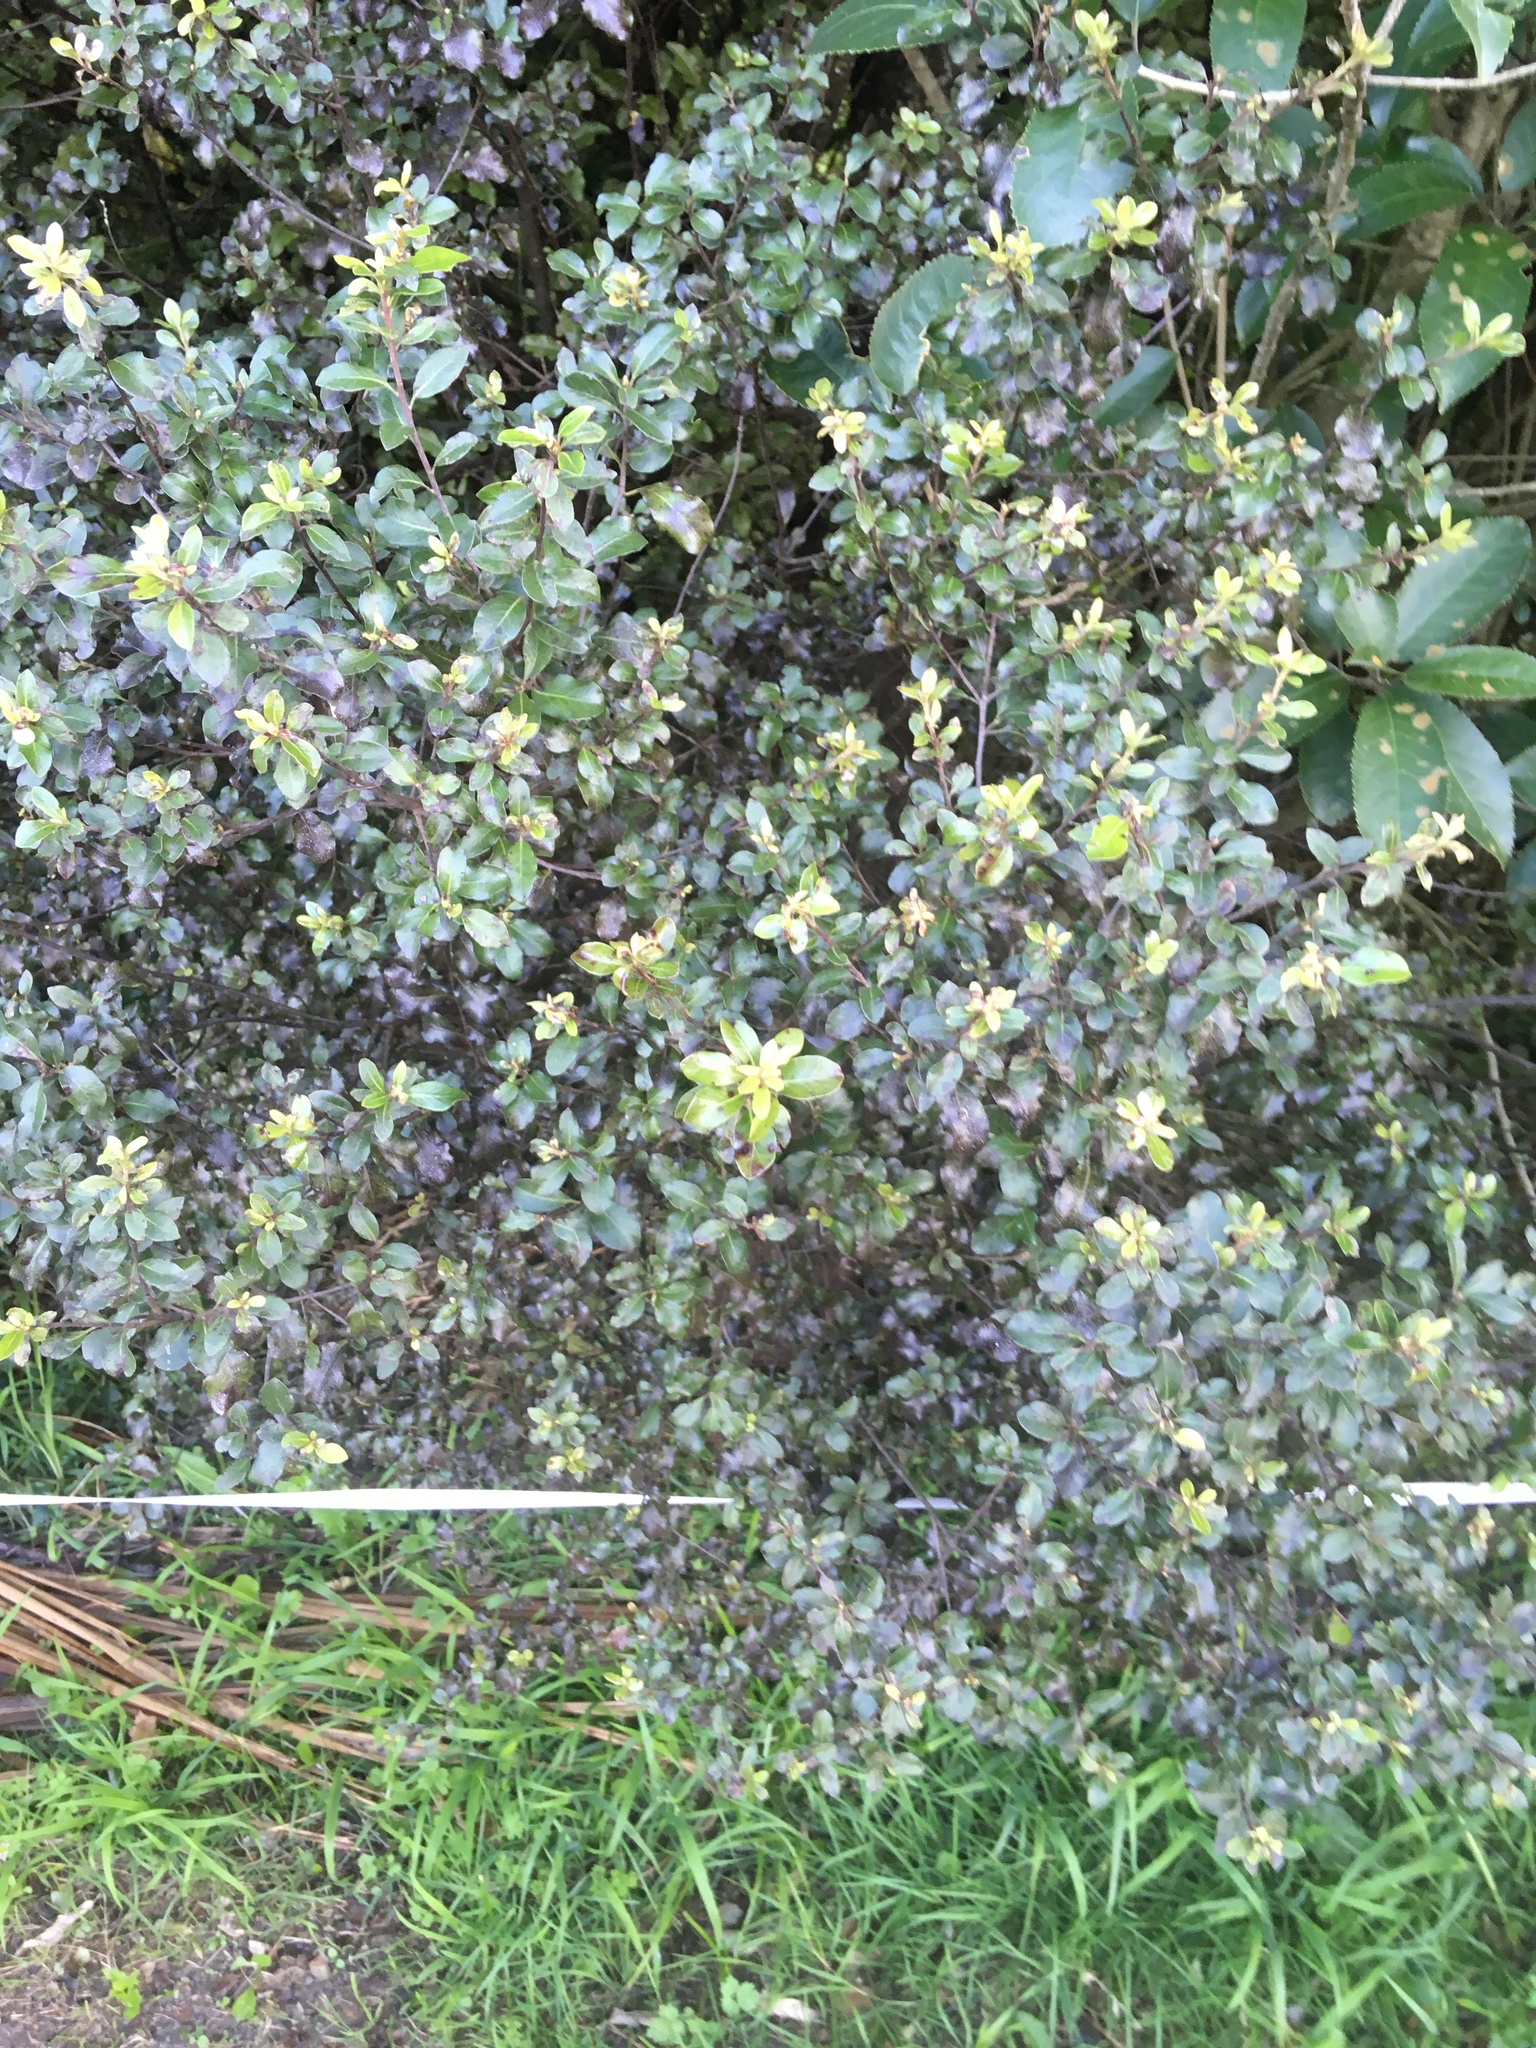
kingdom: Plantae
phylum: Tracheophyta
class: Magnoliopsida
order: Apiales
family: Pittosporaceae
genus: Pittosporum
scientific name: Pittosporum tenuifolium
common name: Kohuhu
